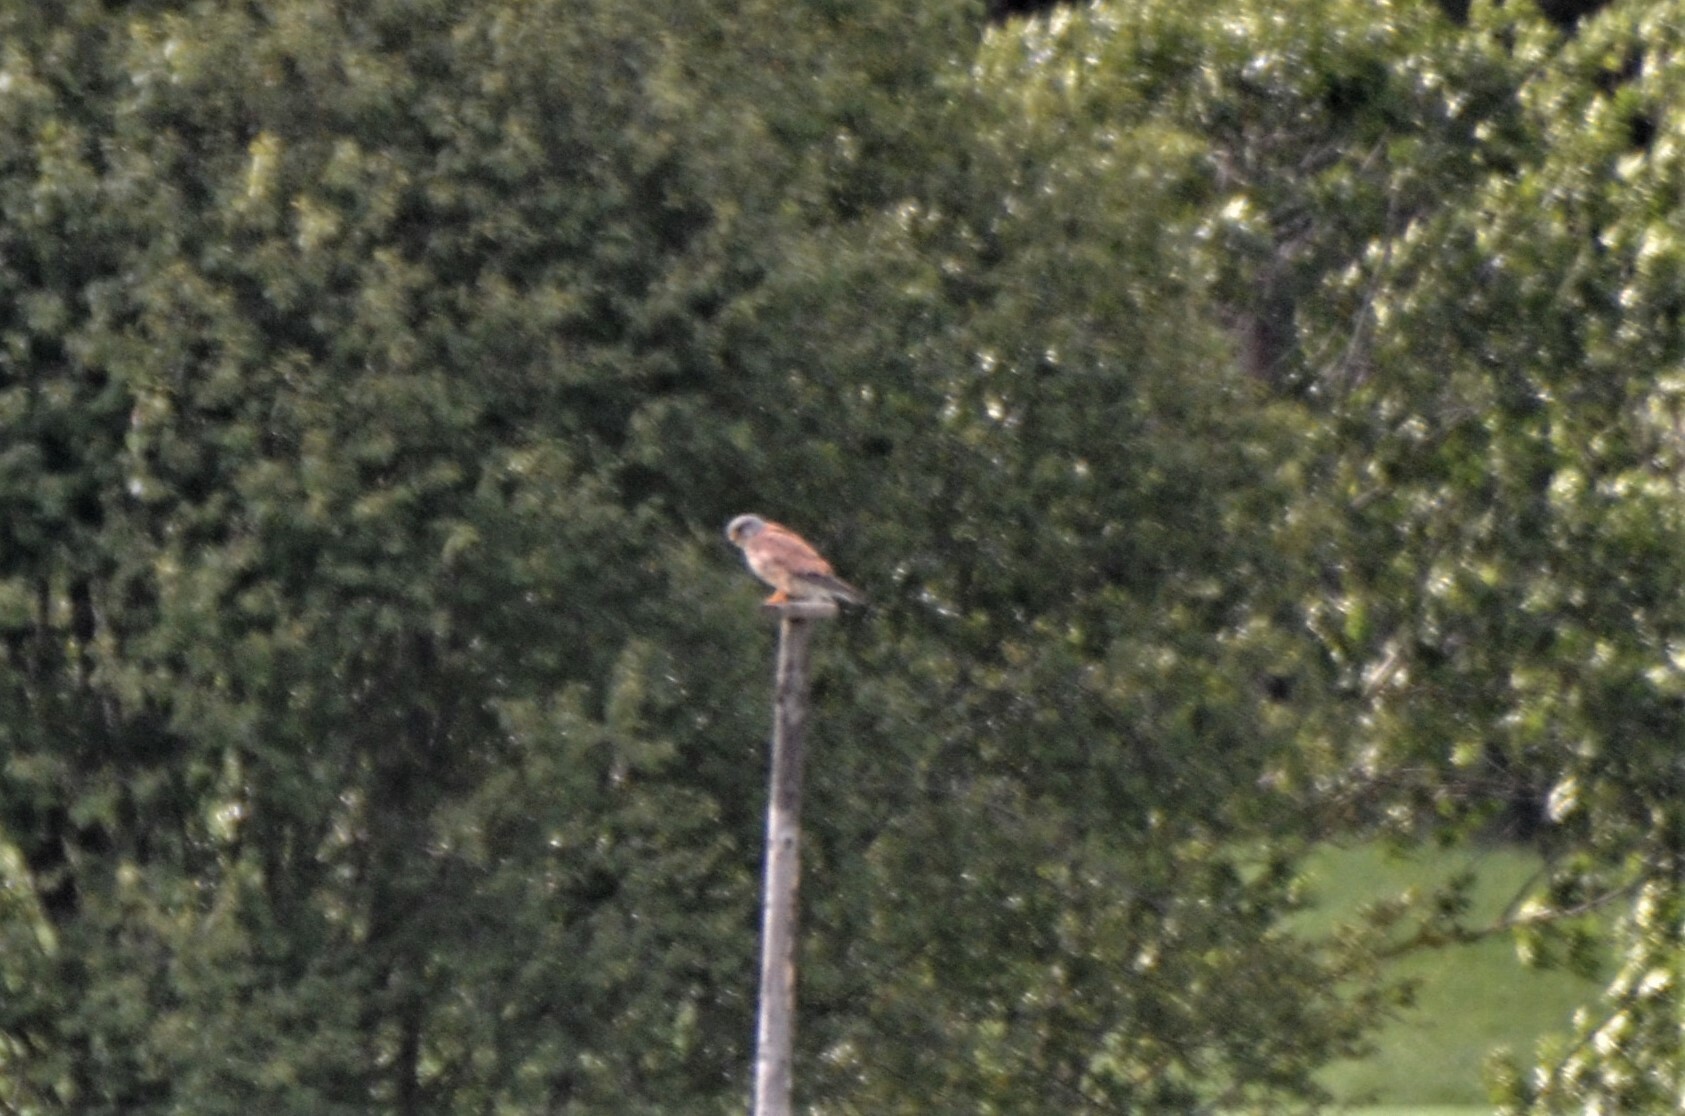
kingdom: Animalia
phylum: Chordata
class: Aves
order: Falconiformes
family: Falconidae
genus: Falco
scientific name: Falco tinnunculus
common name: Common kestrel
